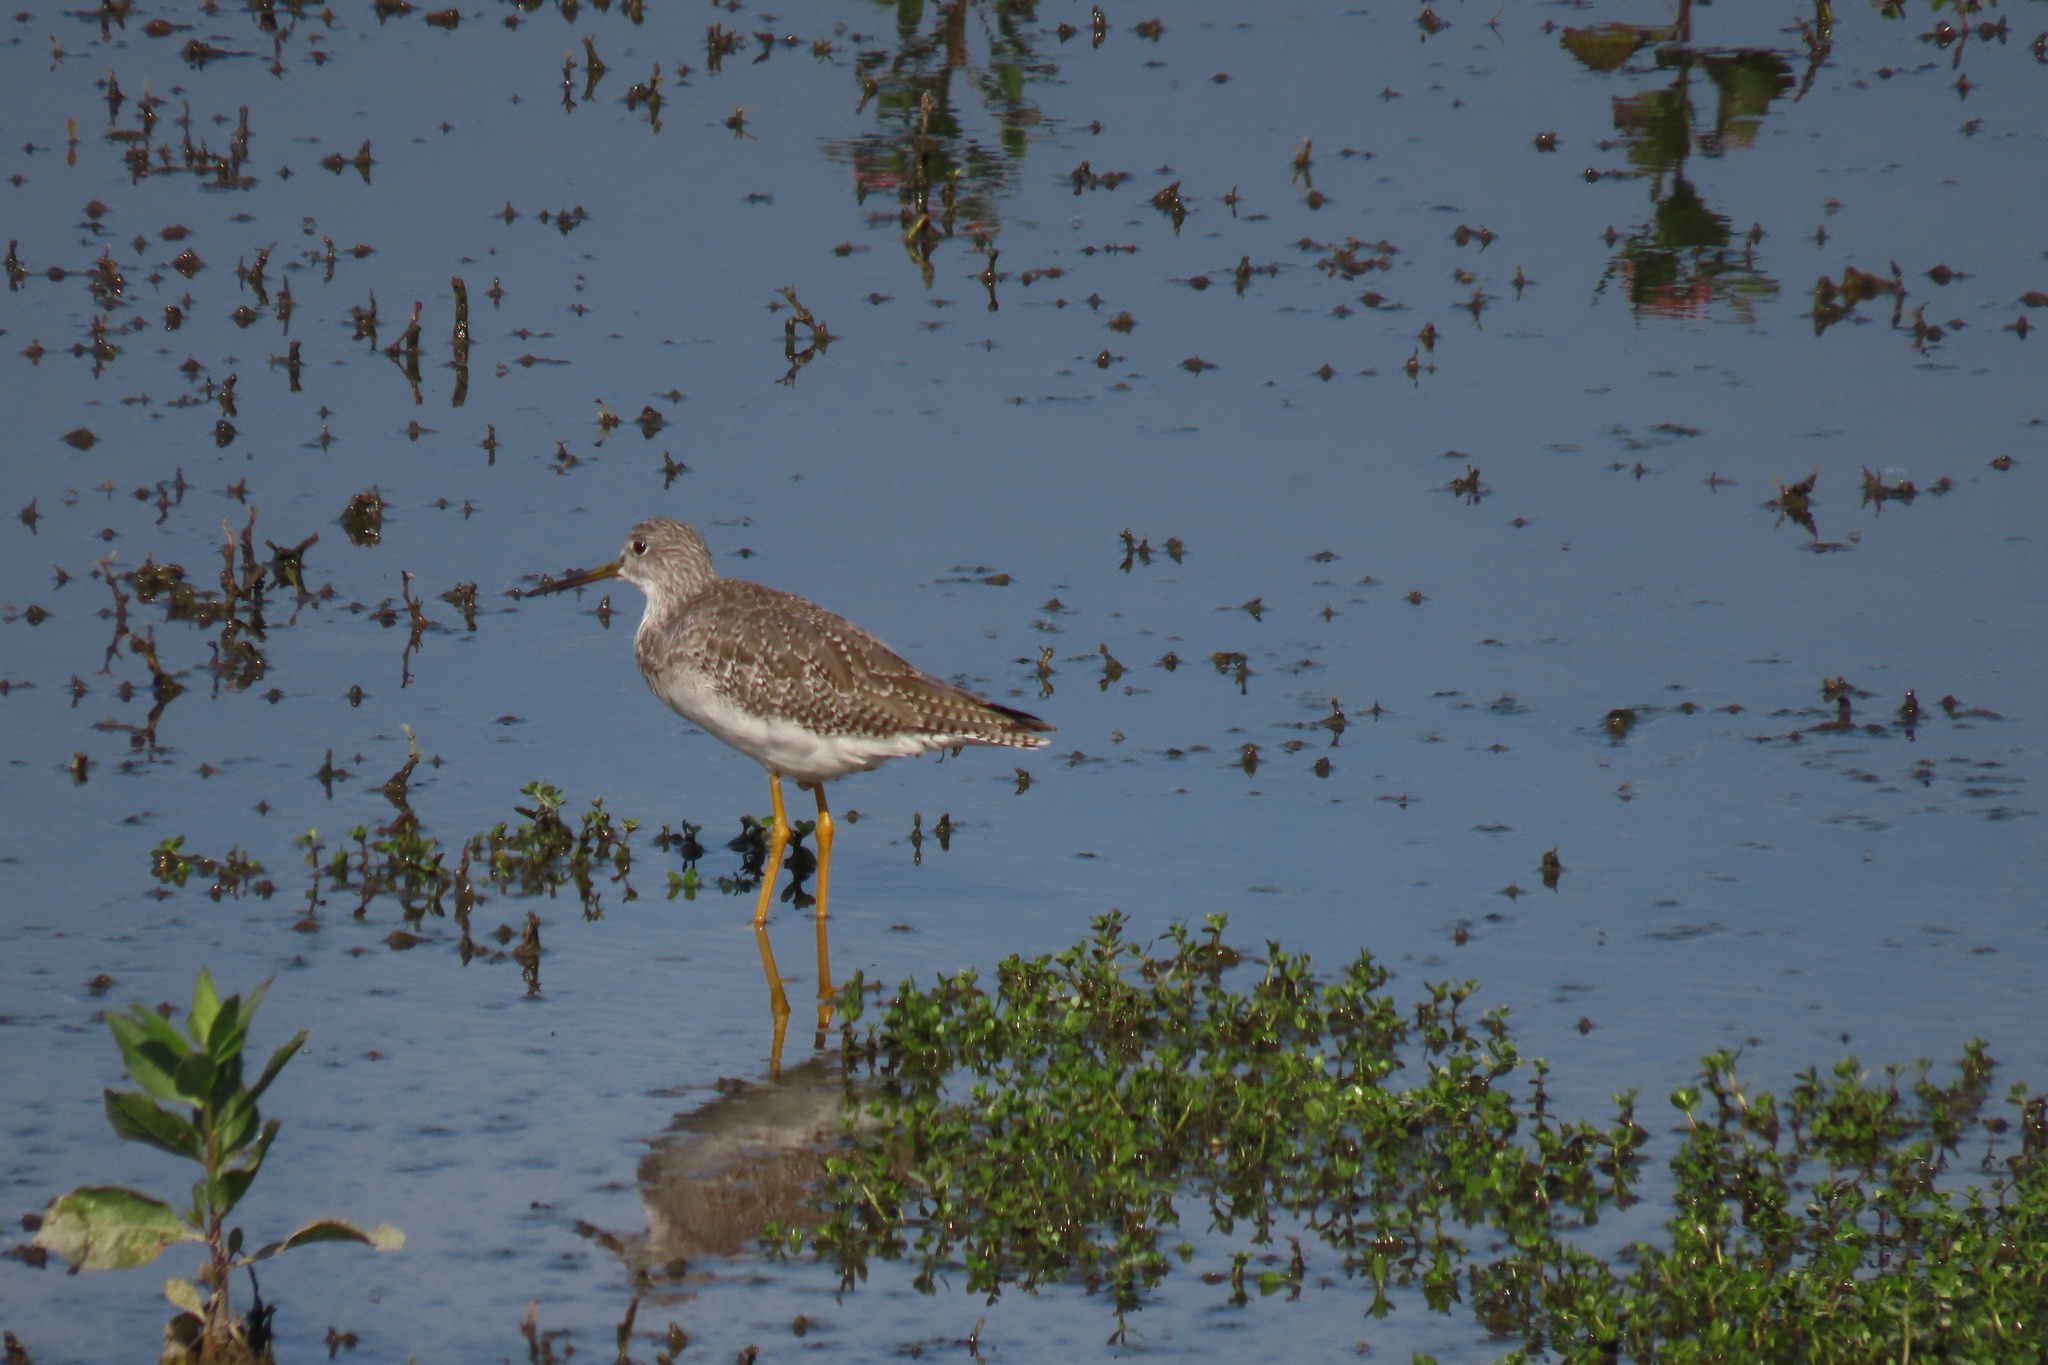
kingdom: Animalia
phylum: Chordata
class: Aves
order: Charadriiformes
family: Scolopacidae
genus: Tringa
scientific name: Tringa melanoleuca
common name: Greater yellowlegs
